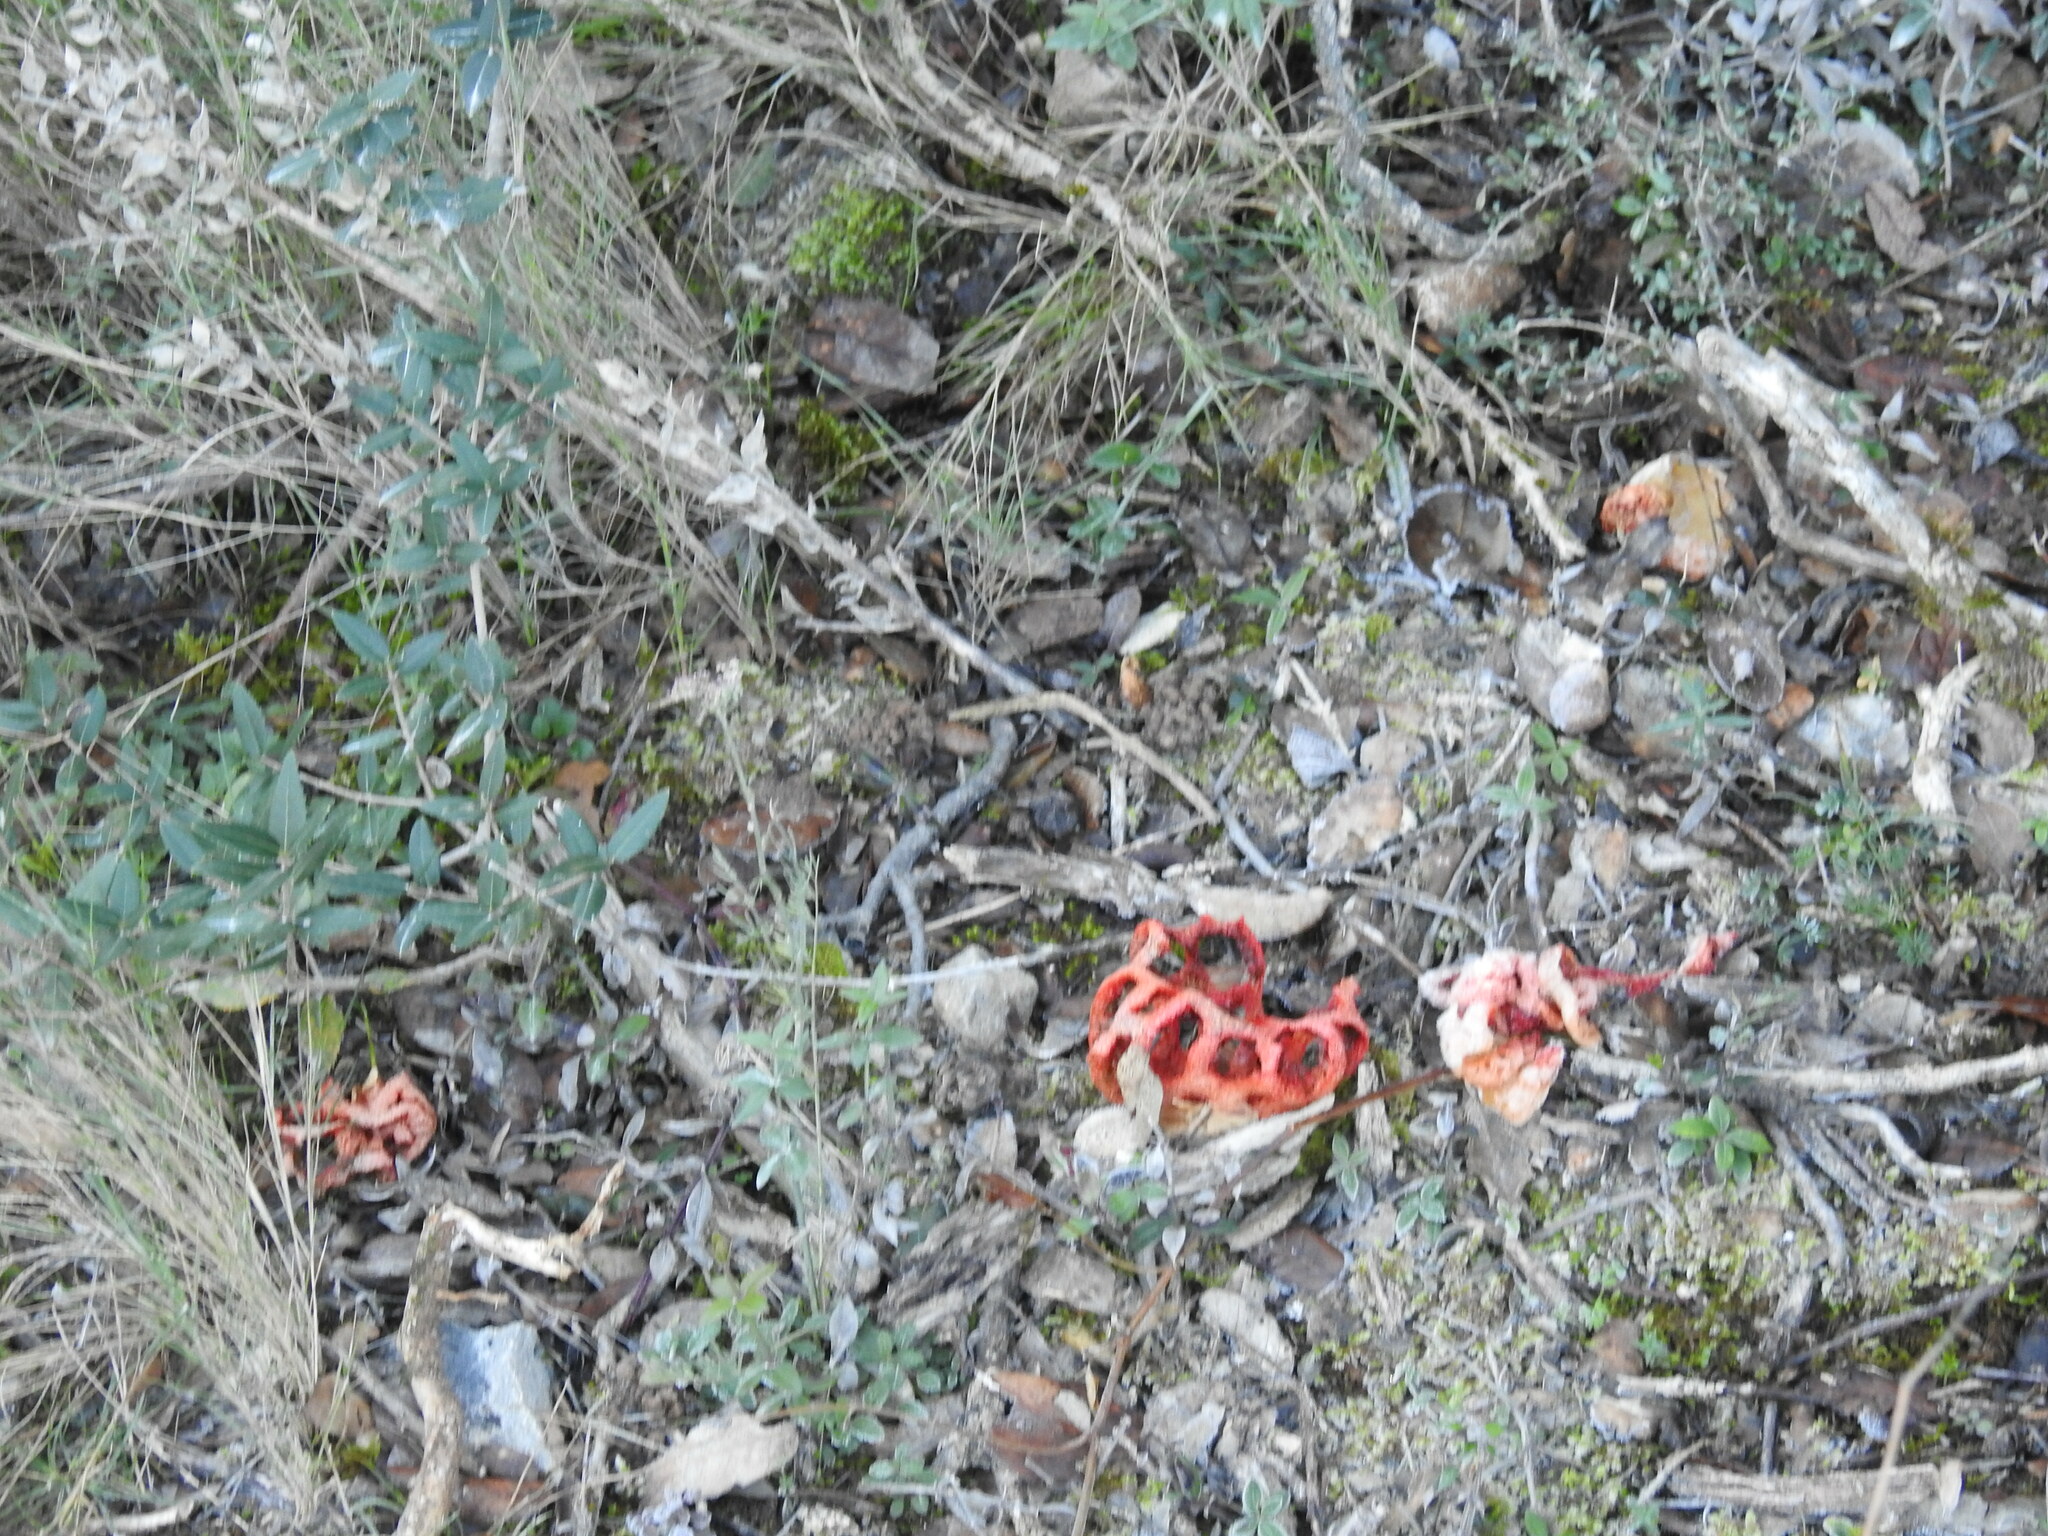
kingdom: Fungi
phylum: Basidiomycota
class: Agaricomycetes
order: Phallales
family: Phallaceae
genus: Clathrus
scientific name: Clathrus ruber
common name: Red cage
